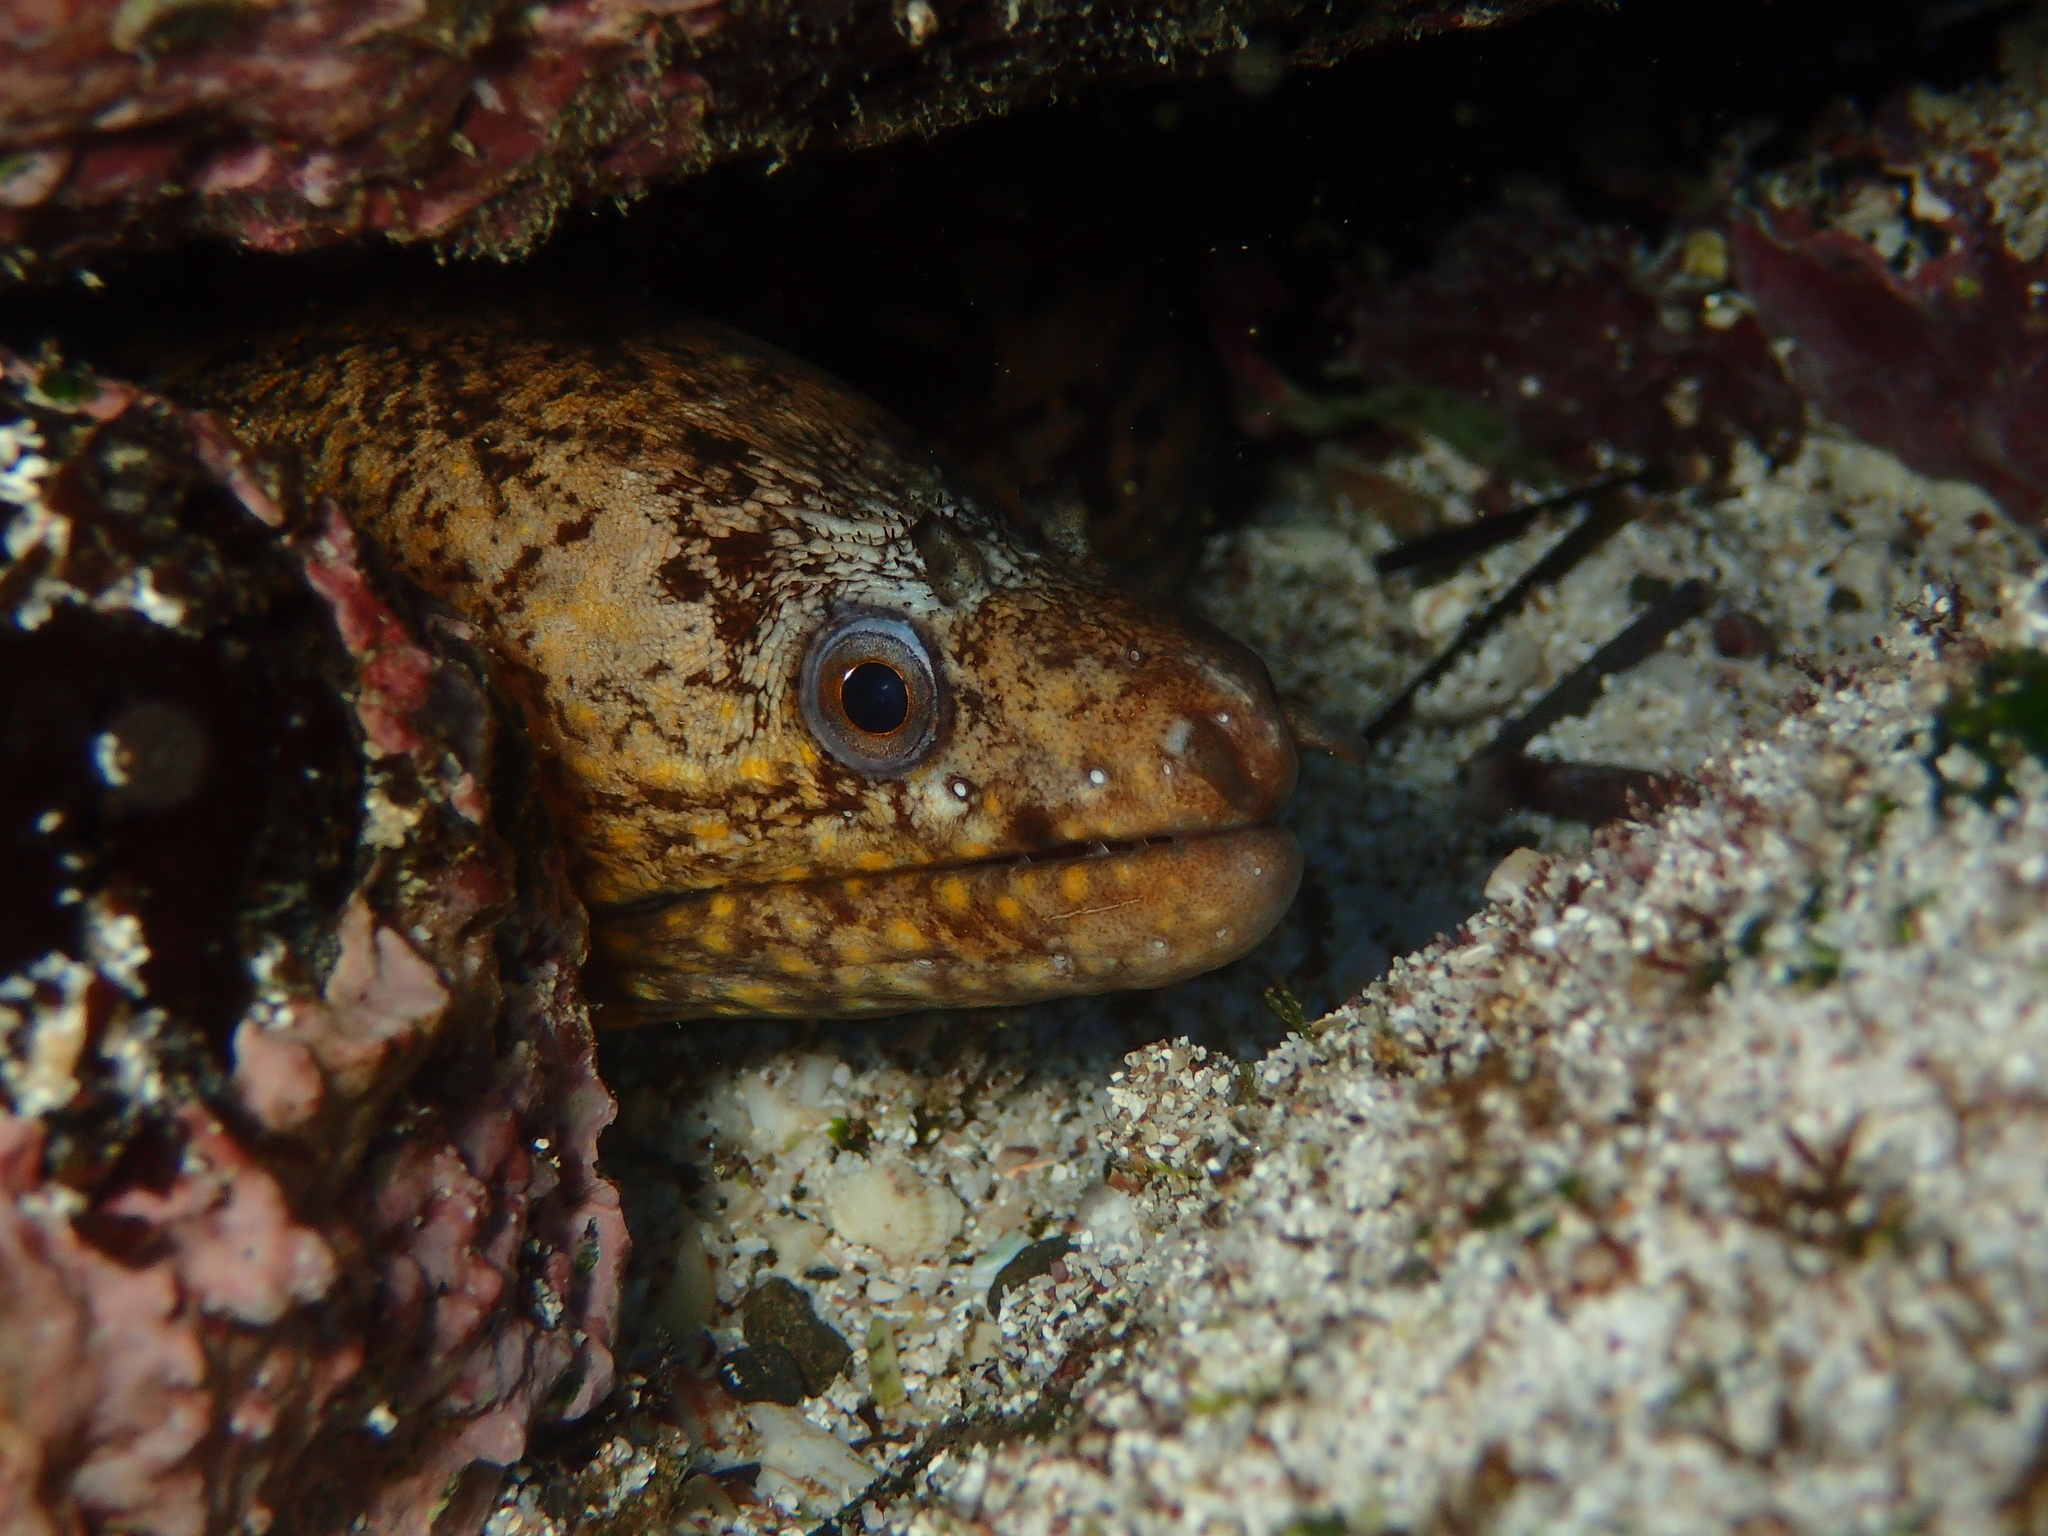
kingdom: Animalia
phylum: Chordata
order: Anguilliformes
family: Muraenidae
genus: Muraena
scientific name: Muraena lentiginosa
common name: Jewel moray
